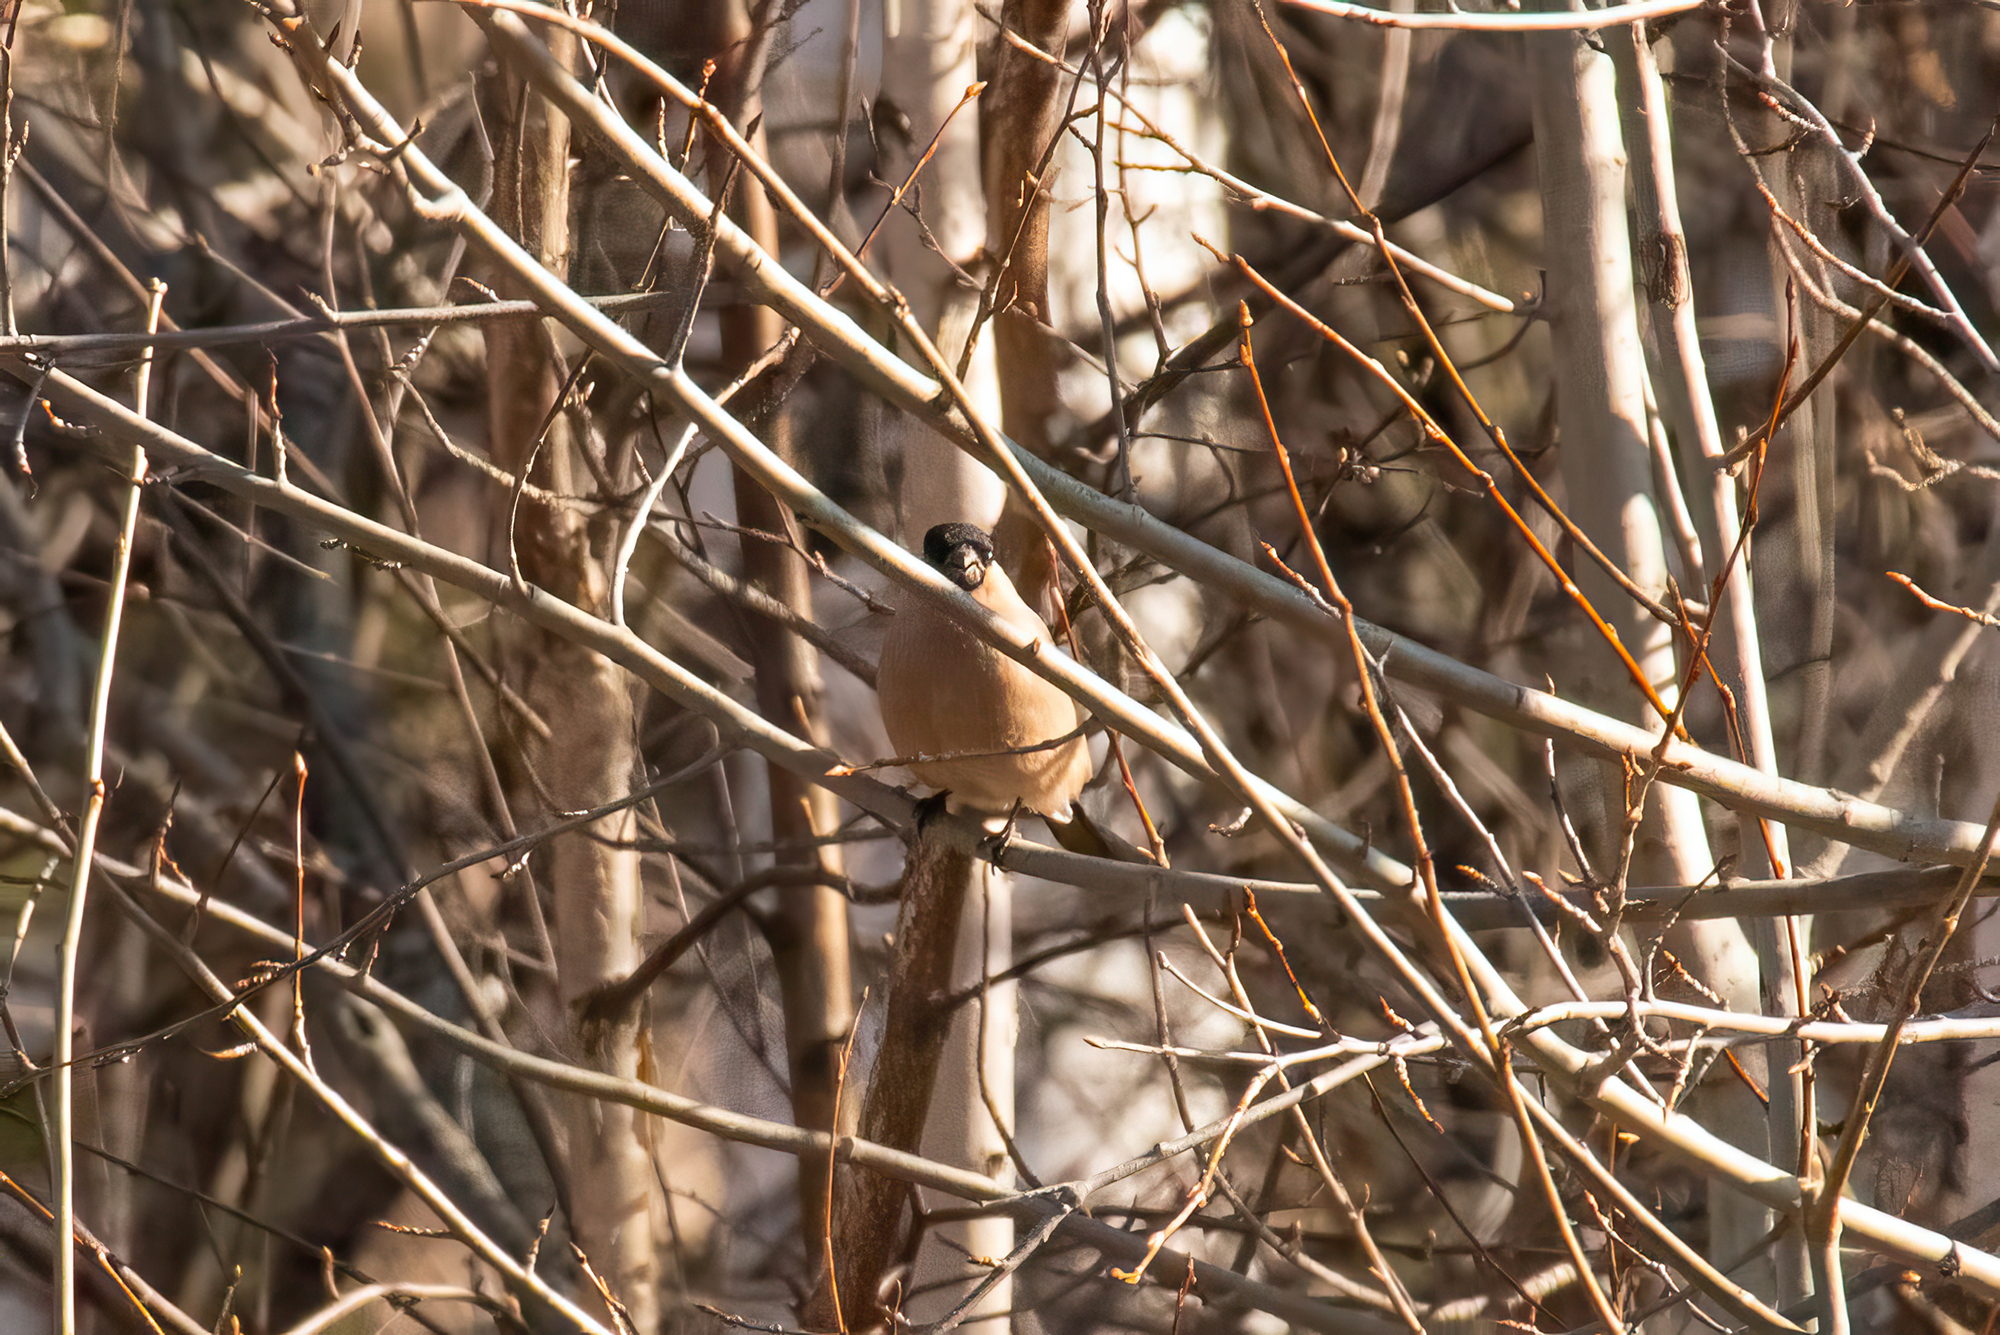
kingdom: Animalia
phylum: Chordata
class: Aves
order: Passeriformes
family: Fringillidae
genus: Pyrrhula
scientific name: Pyrrhula pyrrhula
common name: Eurasian bullfinch
